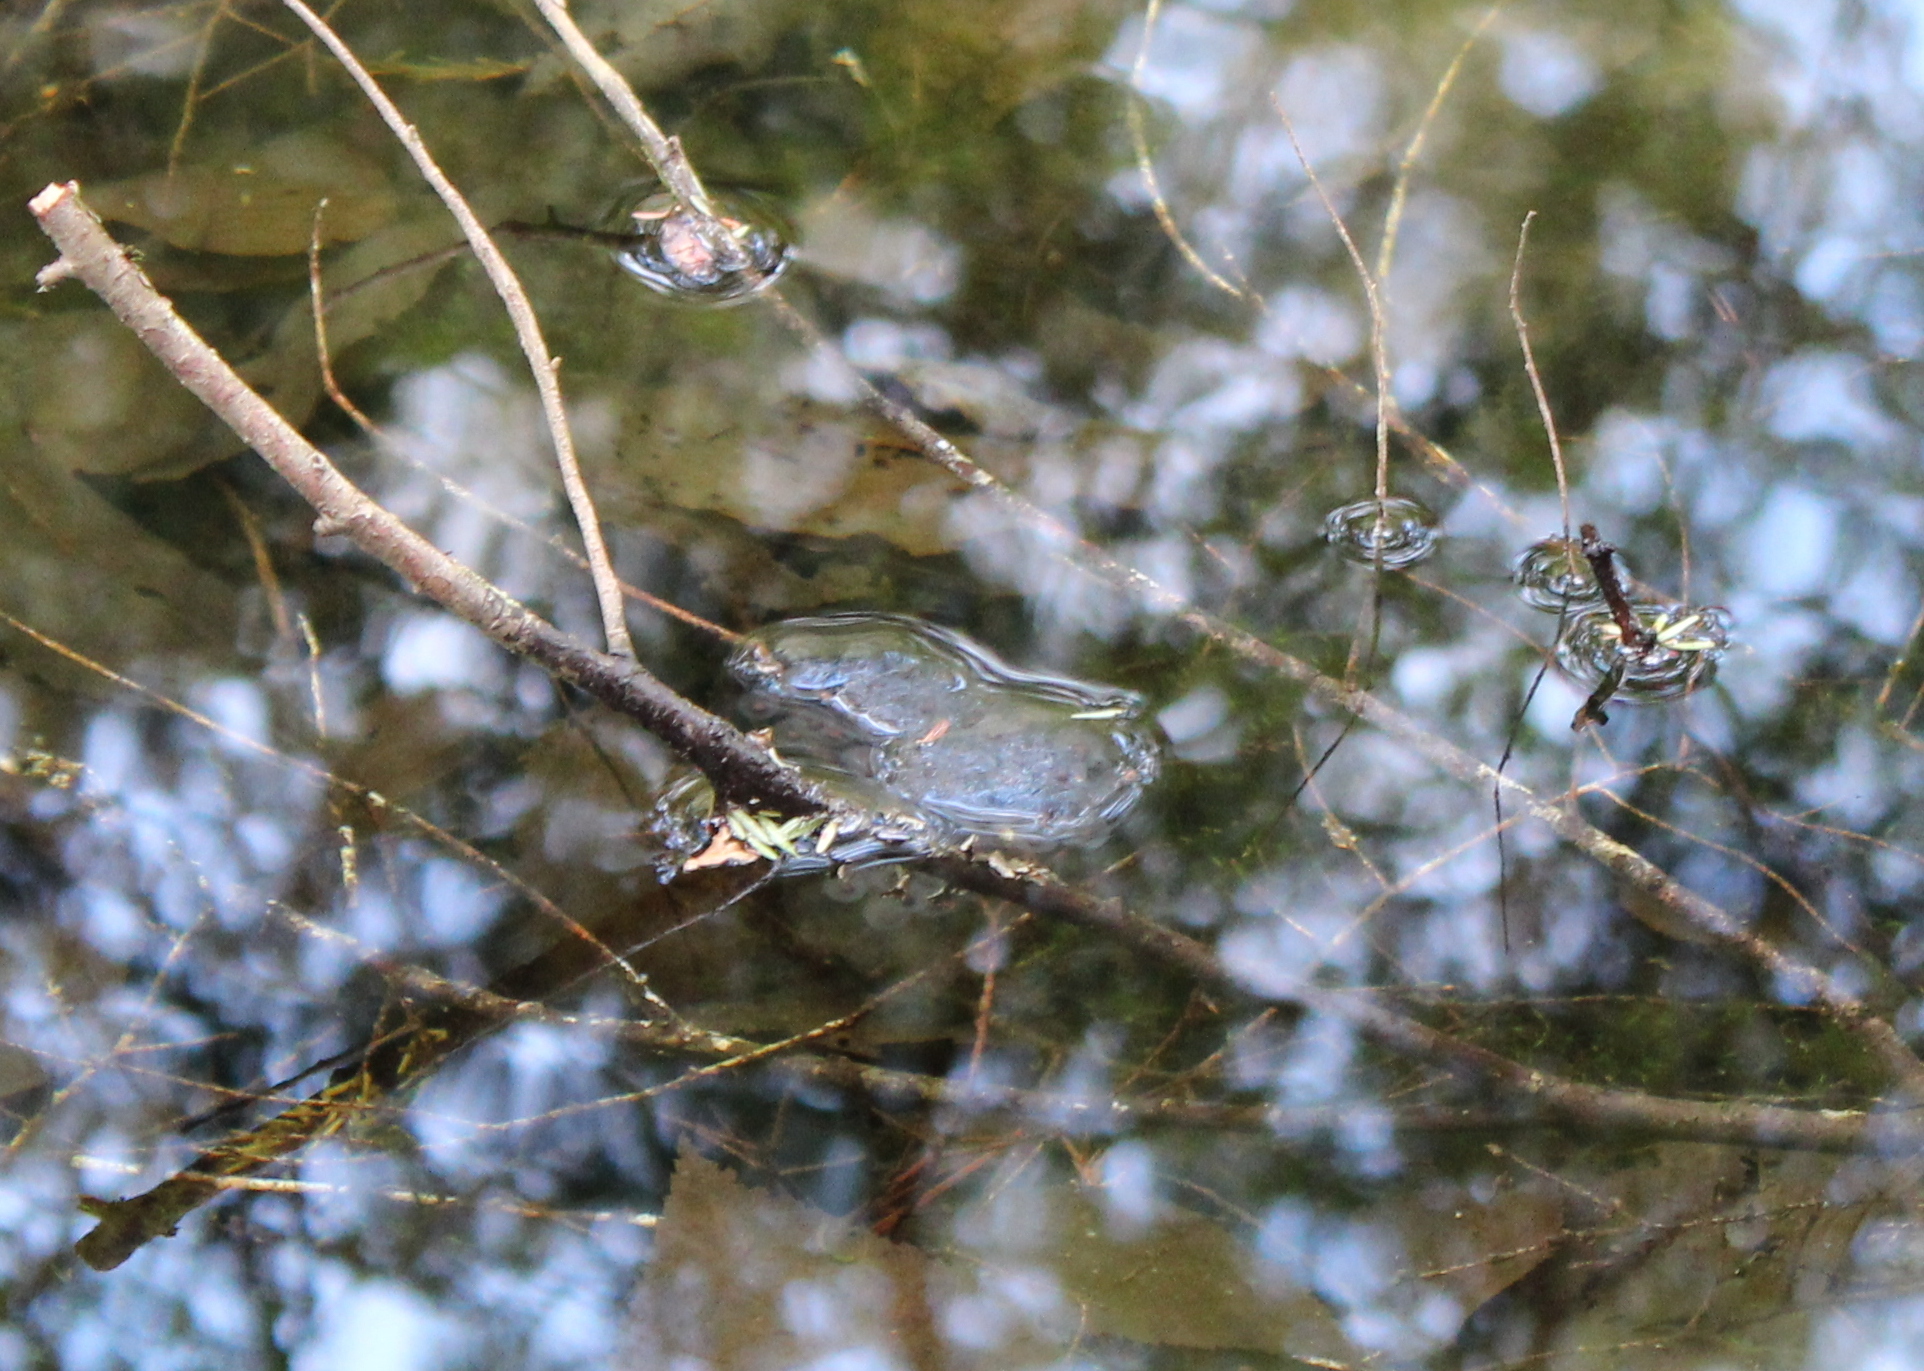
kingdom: Animalia
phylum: Chordata
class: Amphibia
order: Caudata
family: Ambystomatidae
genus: Ambystoma
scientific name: Ambystoma maculatum
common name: Spotted salamander
